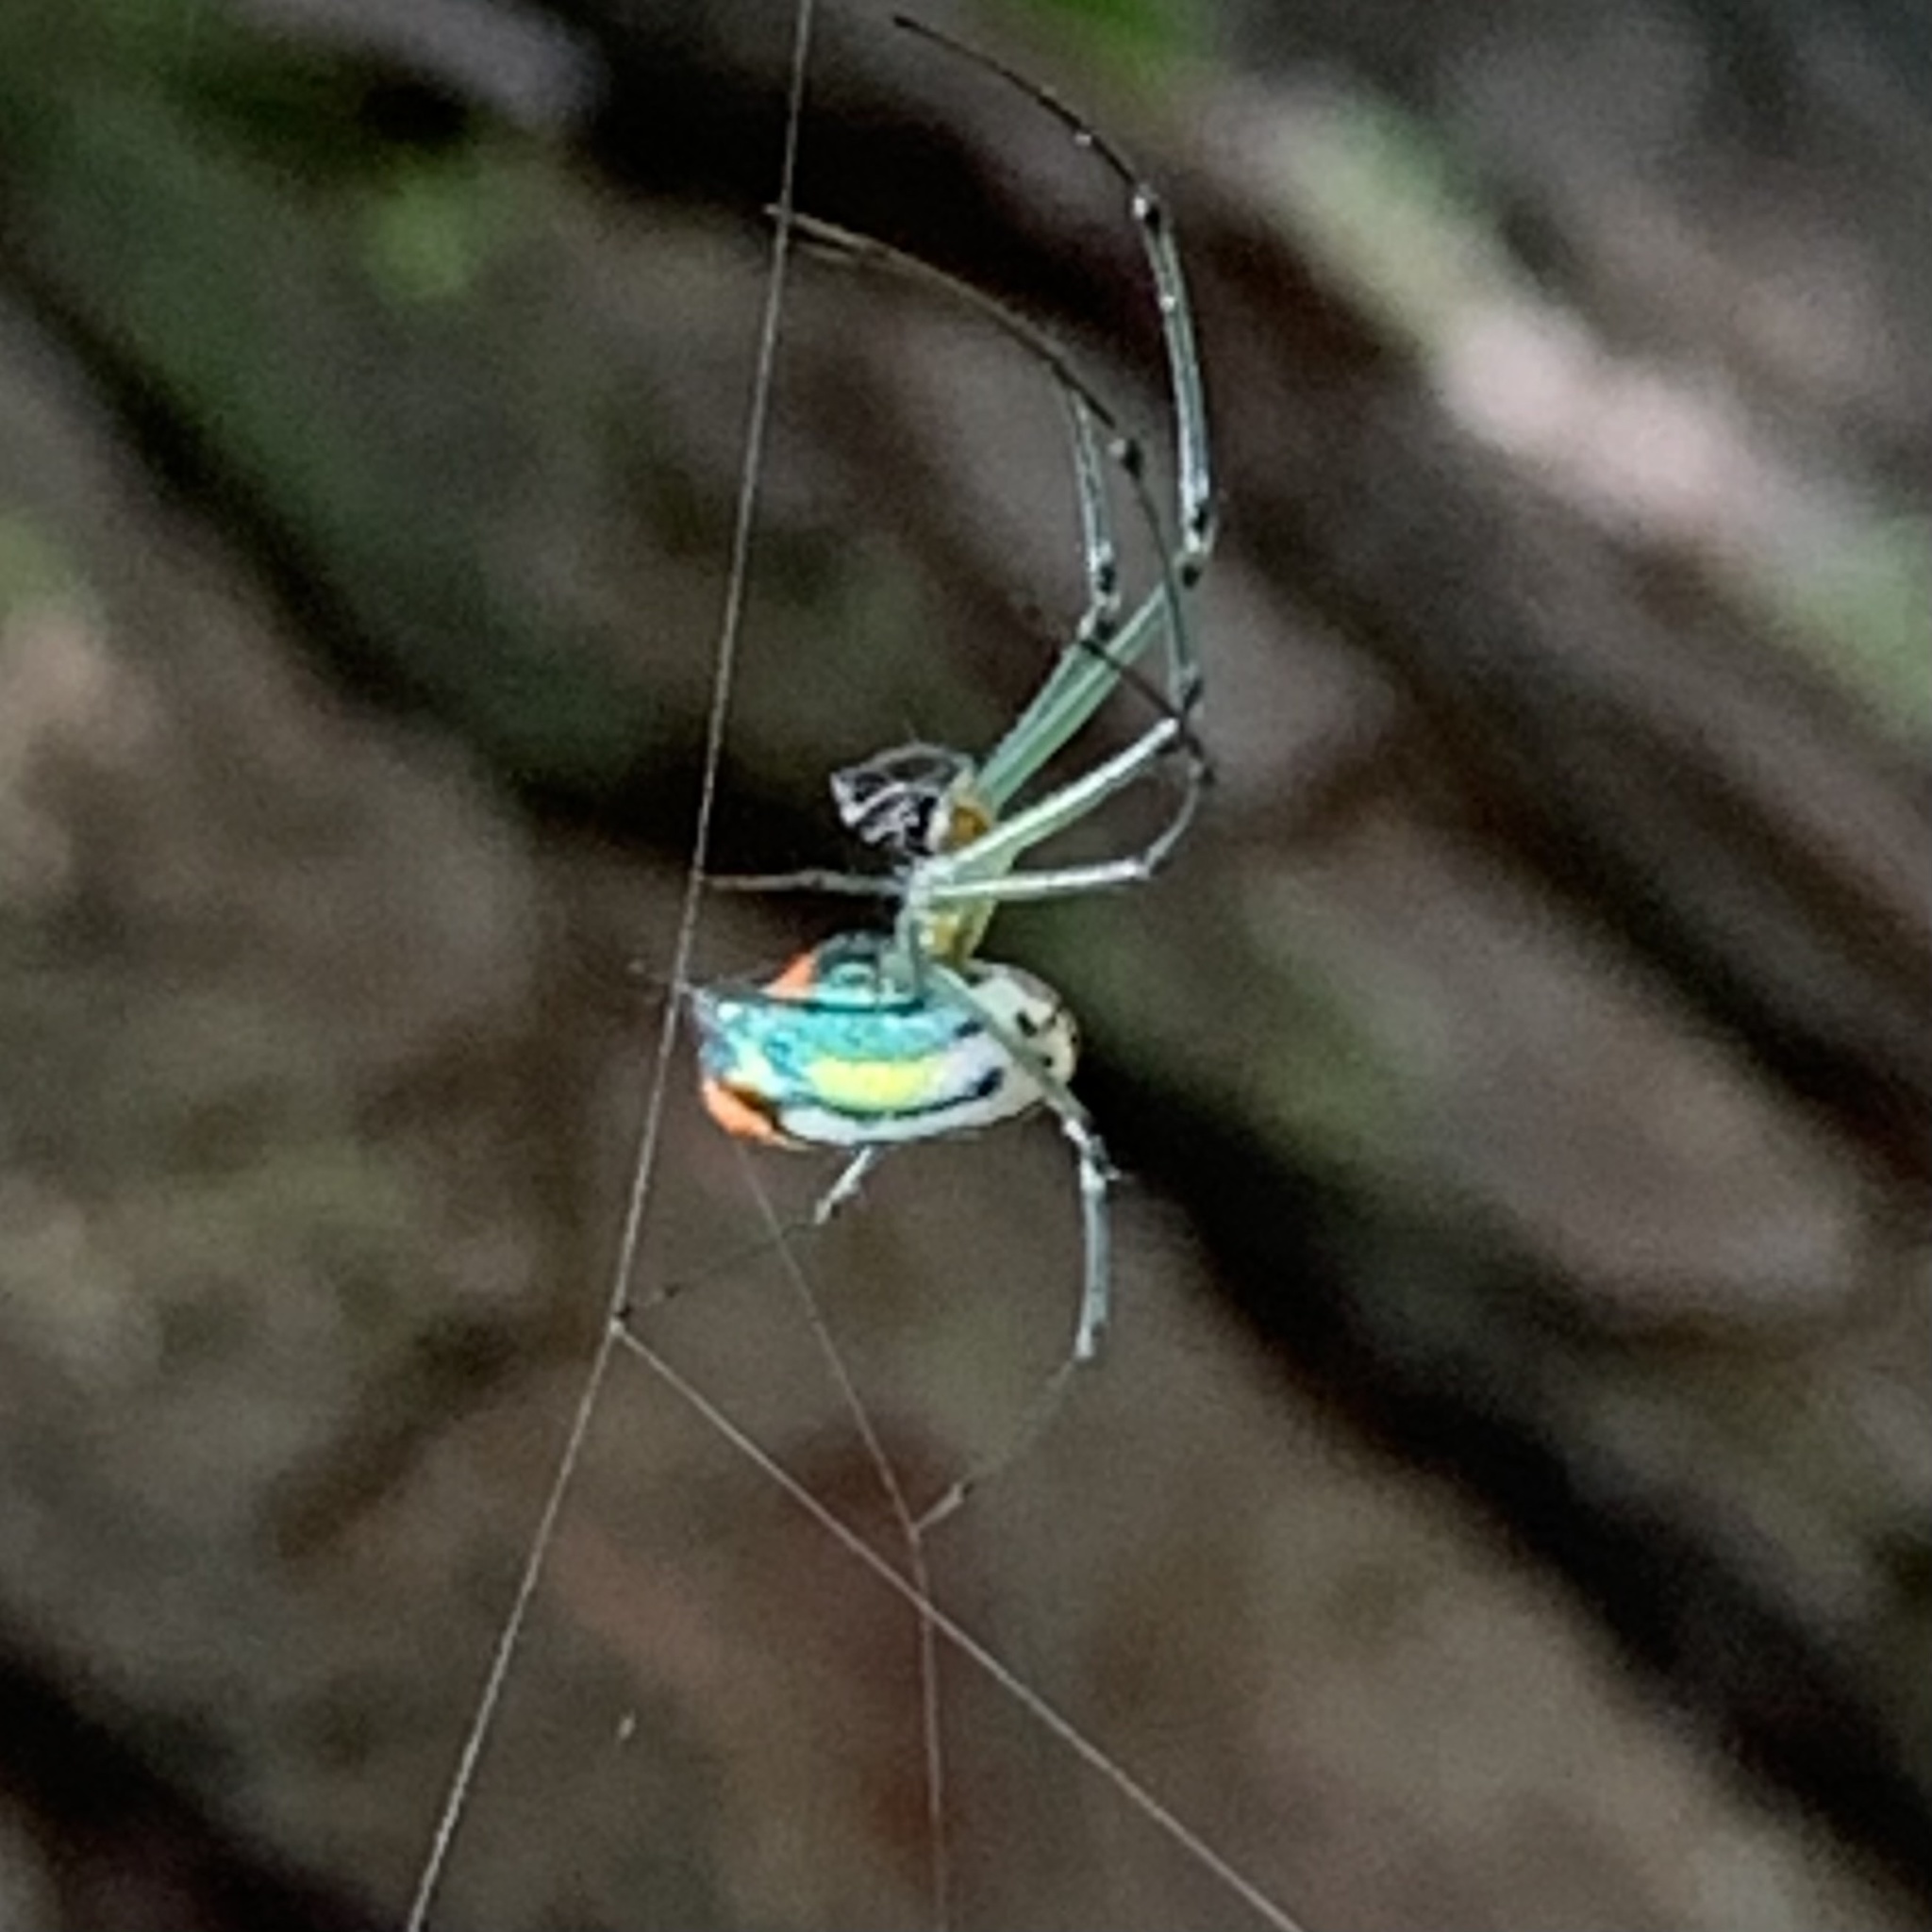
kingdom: Animalia
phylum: Arthropoda
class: Arachnida
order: Araneae
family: Tetragnathidae
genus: Leucauge
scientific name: Leucauge argyrobapta
